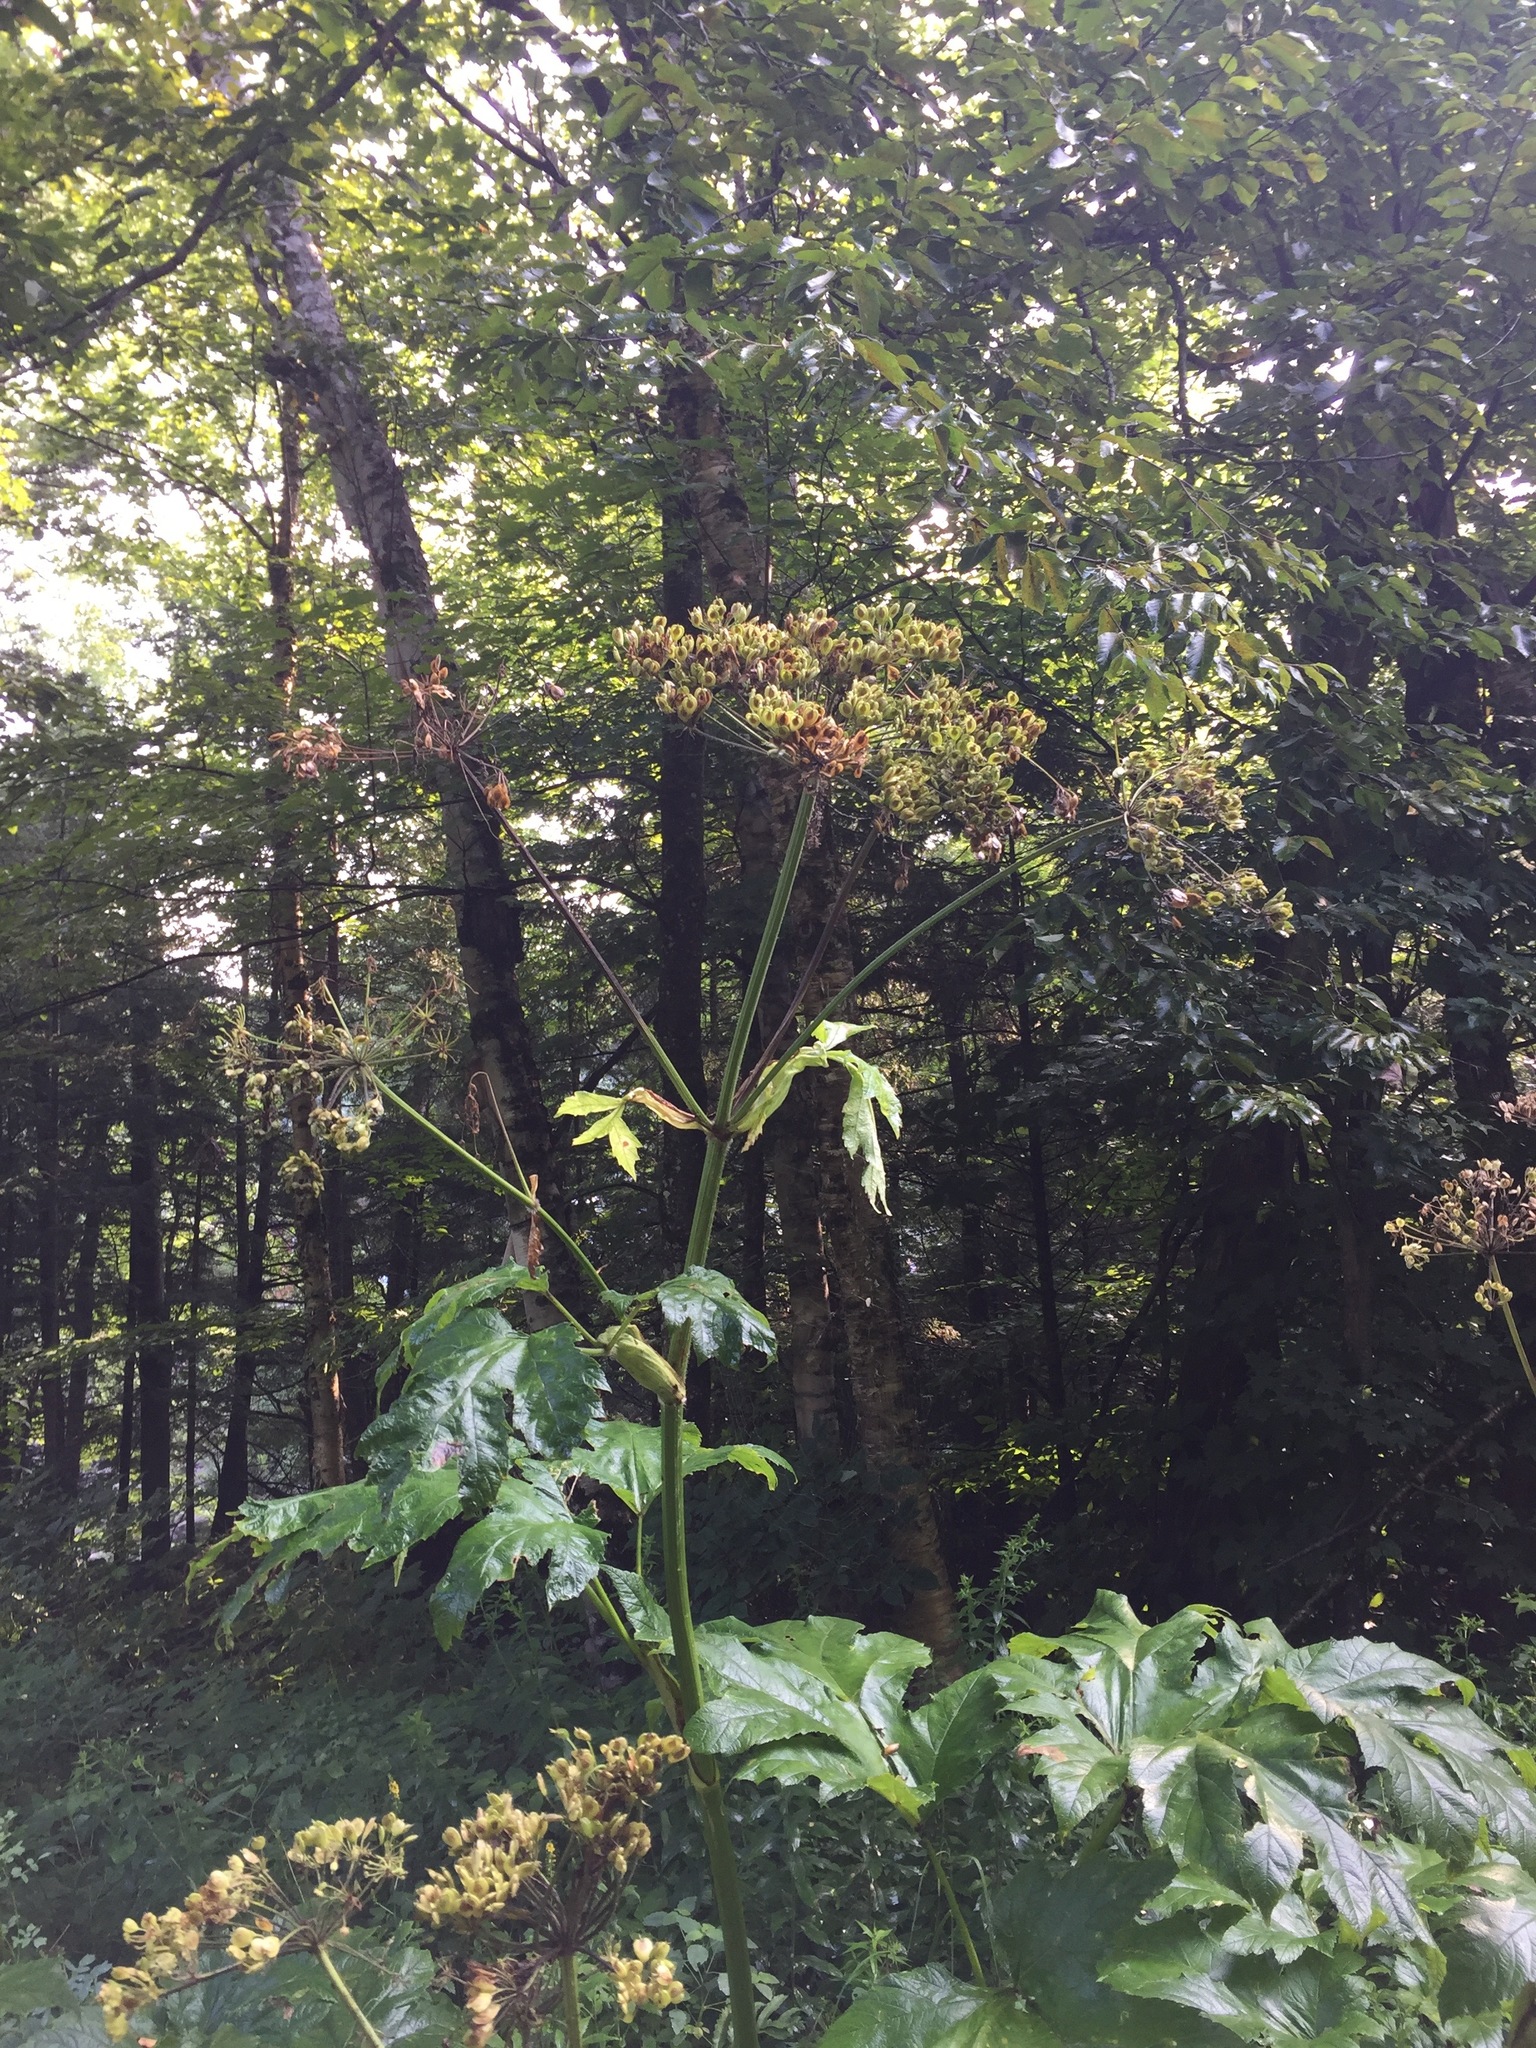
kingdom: Plantae
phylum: Tracheophyta
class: Magnoliopsida
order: Apiales
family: Apiaceae
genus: Heracleum
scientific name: Heracleum maximum
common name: American cow parsnip
